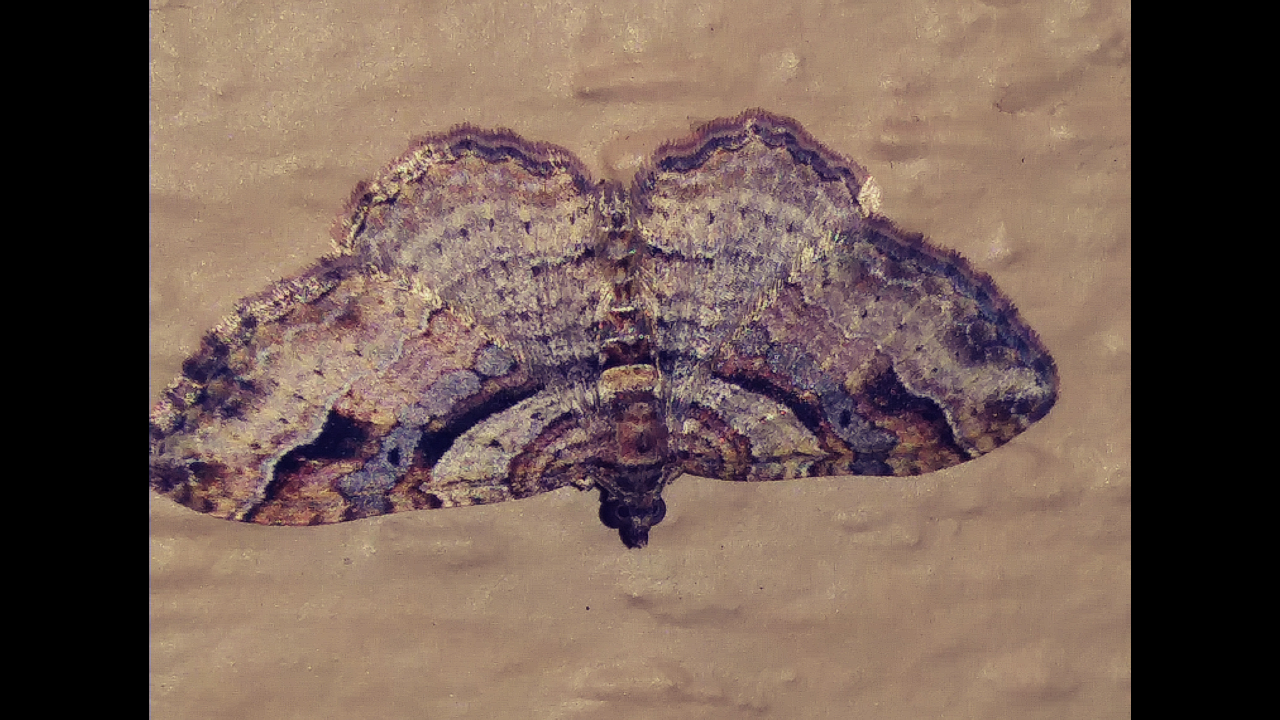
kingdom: Animalia
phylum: Arthropoda
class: Insecta
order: Lepidoptera
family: Geometridae
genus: Costaconvexa
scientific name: Costaconvexa centrostrigaria
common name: Bent-line carpet
